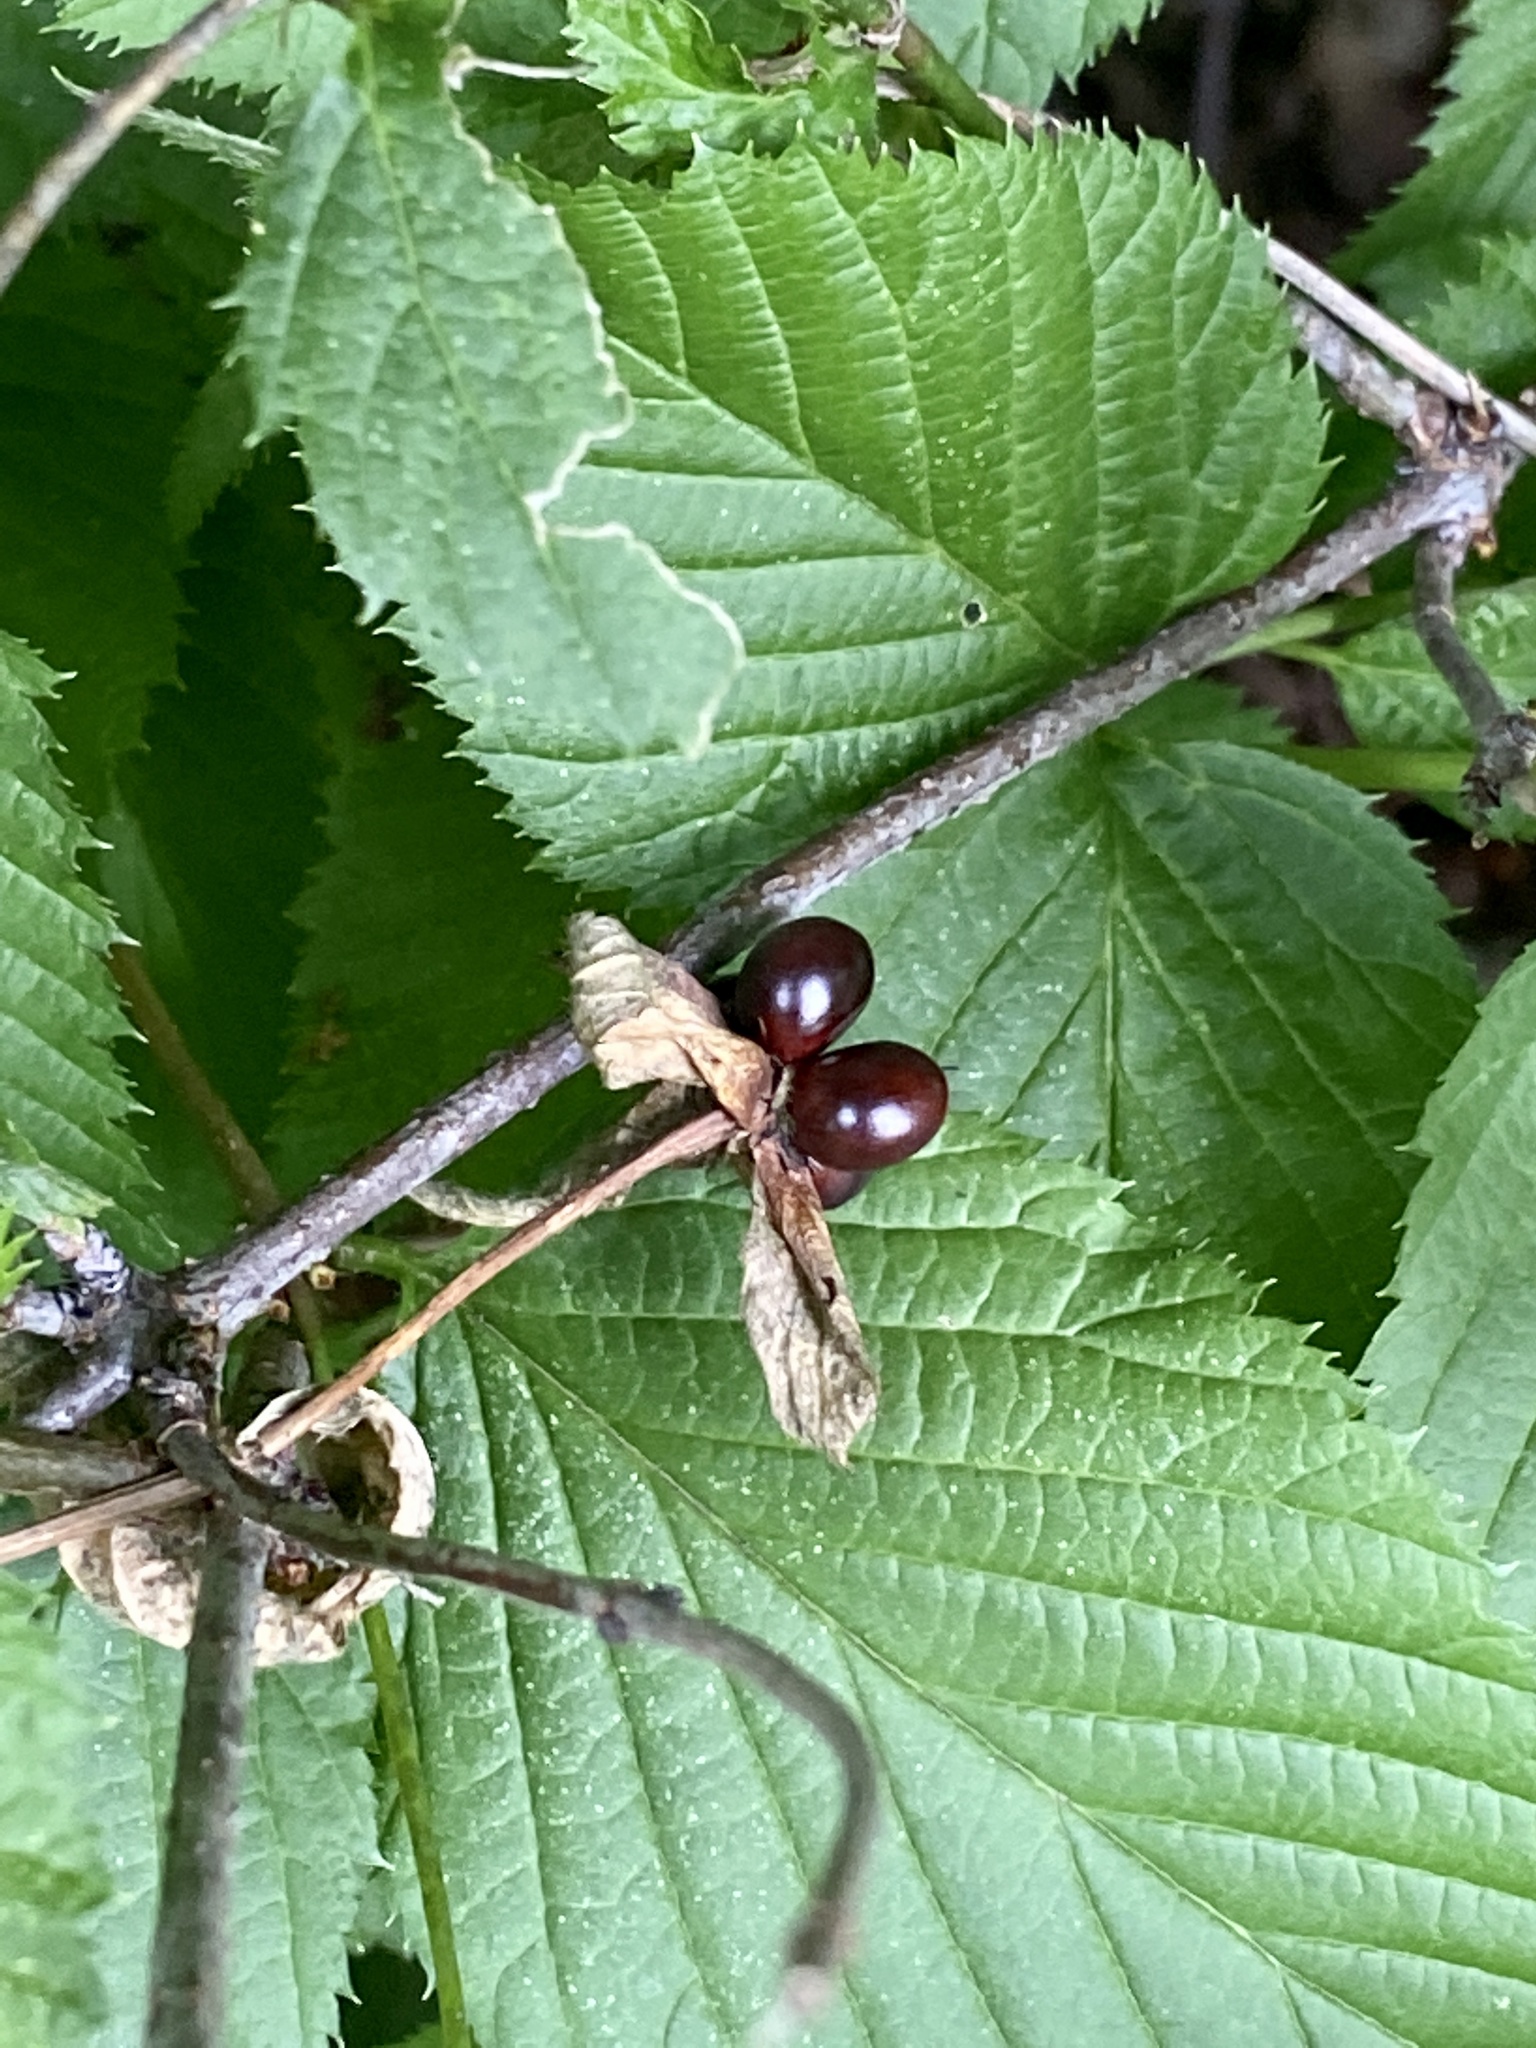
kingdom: Plantae
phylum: Tracheophyta
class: Magnoliopsida
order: Rosales
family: Rosaceae
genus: Rhodotypos
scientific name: Rhodotypos scandens
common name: Jetbead
